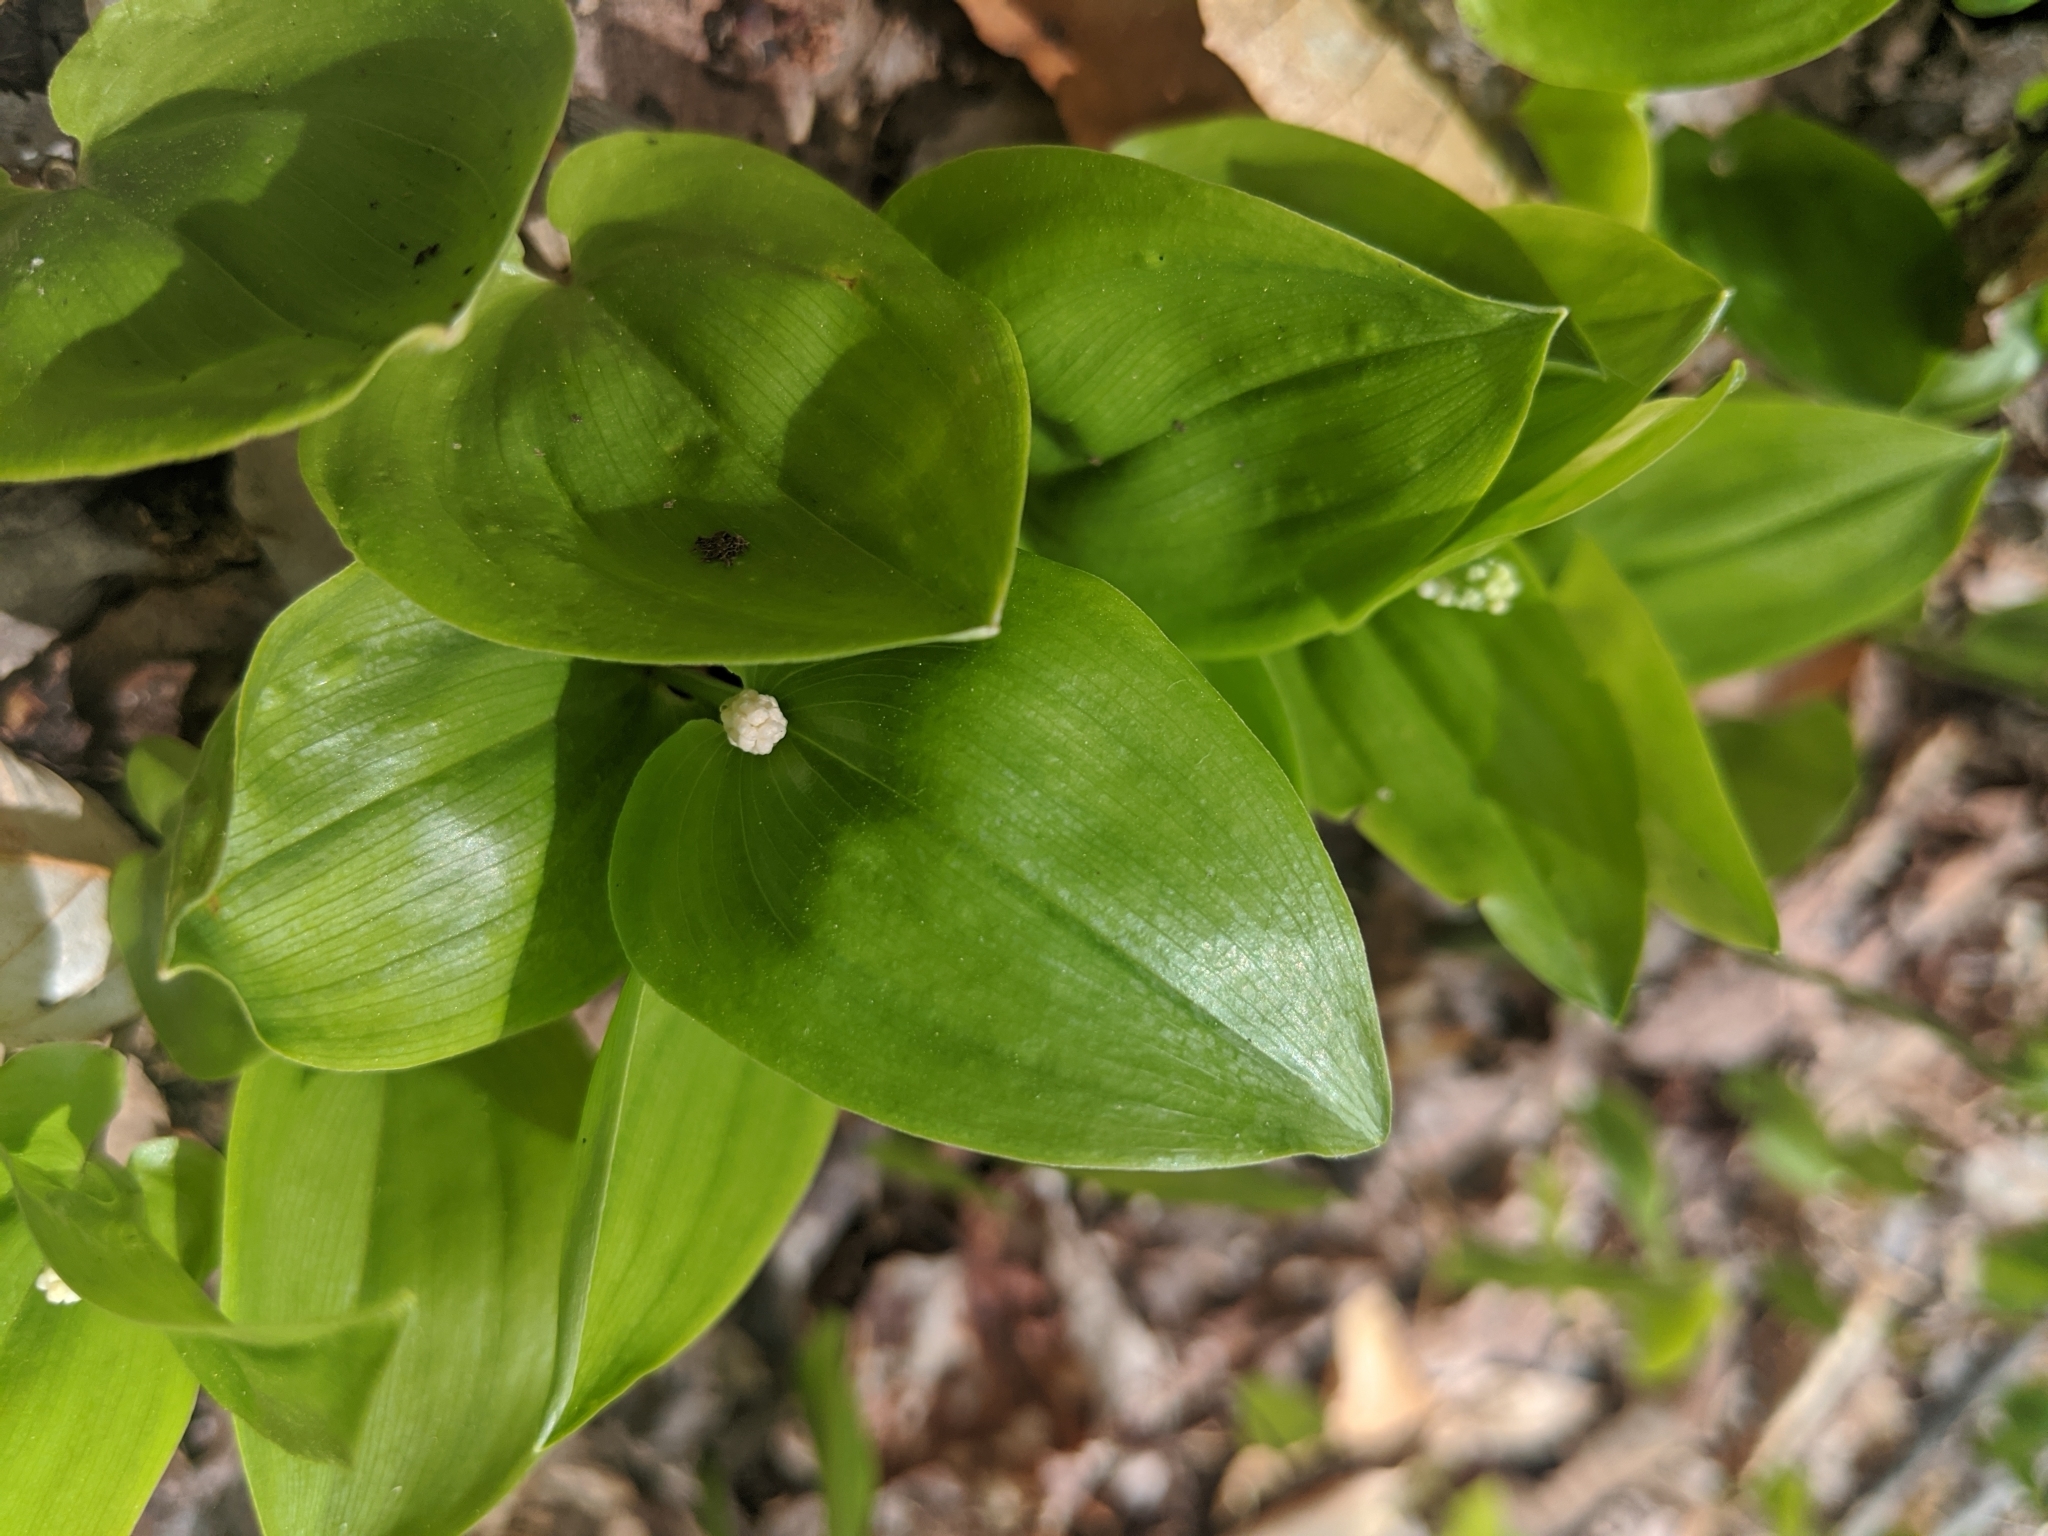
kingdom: Plantae
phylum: Tracheophyta
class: Liliopsida
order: Asparagales
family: Asparagaceae
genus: Maianthemum
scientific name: Maianthemum canadense
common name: False lily-of-the-valley
